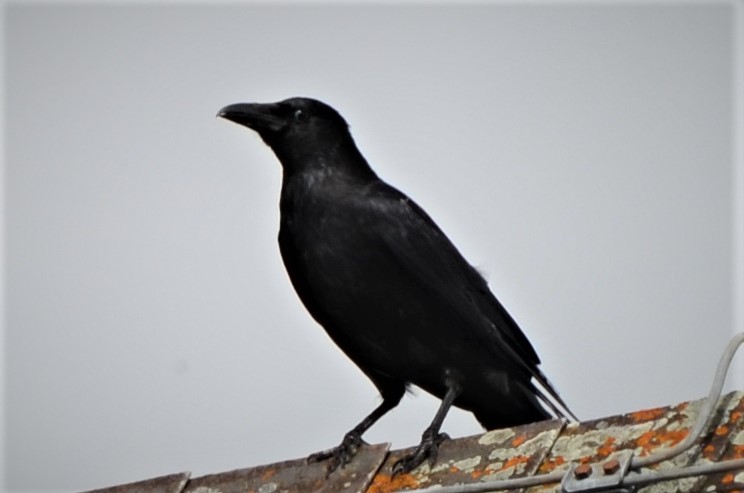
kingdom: Animalia
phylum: Chordata
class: Aves
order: Passeriformes
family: Corvidae
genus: Corvus
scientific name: Corvus corone
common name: Carrion crow
